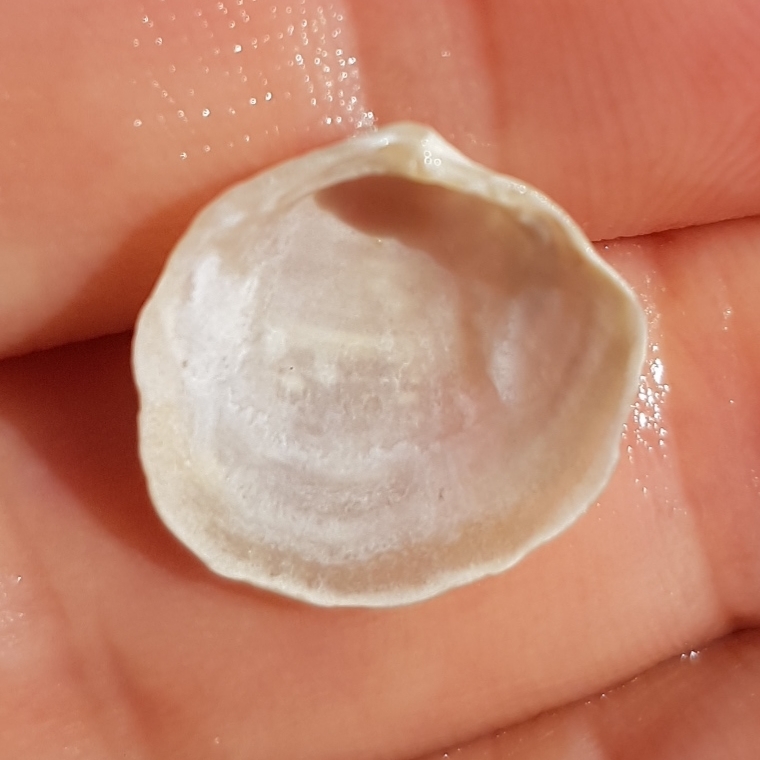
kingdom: Animalia
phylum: Mollusca
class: Bivalvia
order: Lucinida
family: Lucinidae
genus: Loripes
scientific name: Loripes orbiculatus
